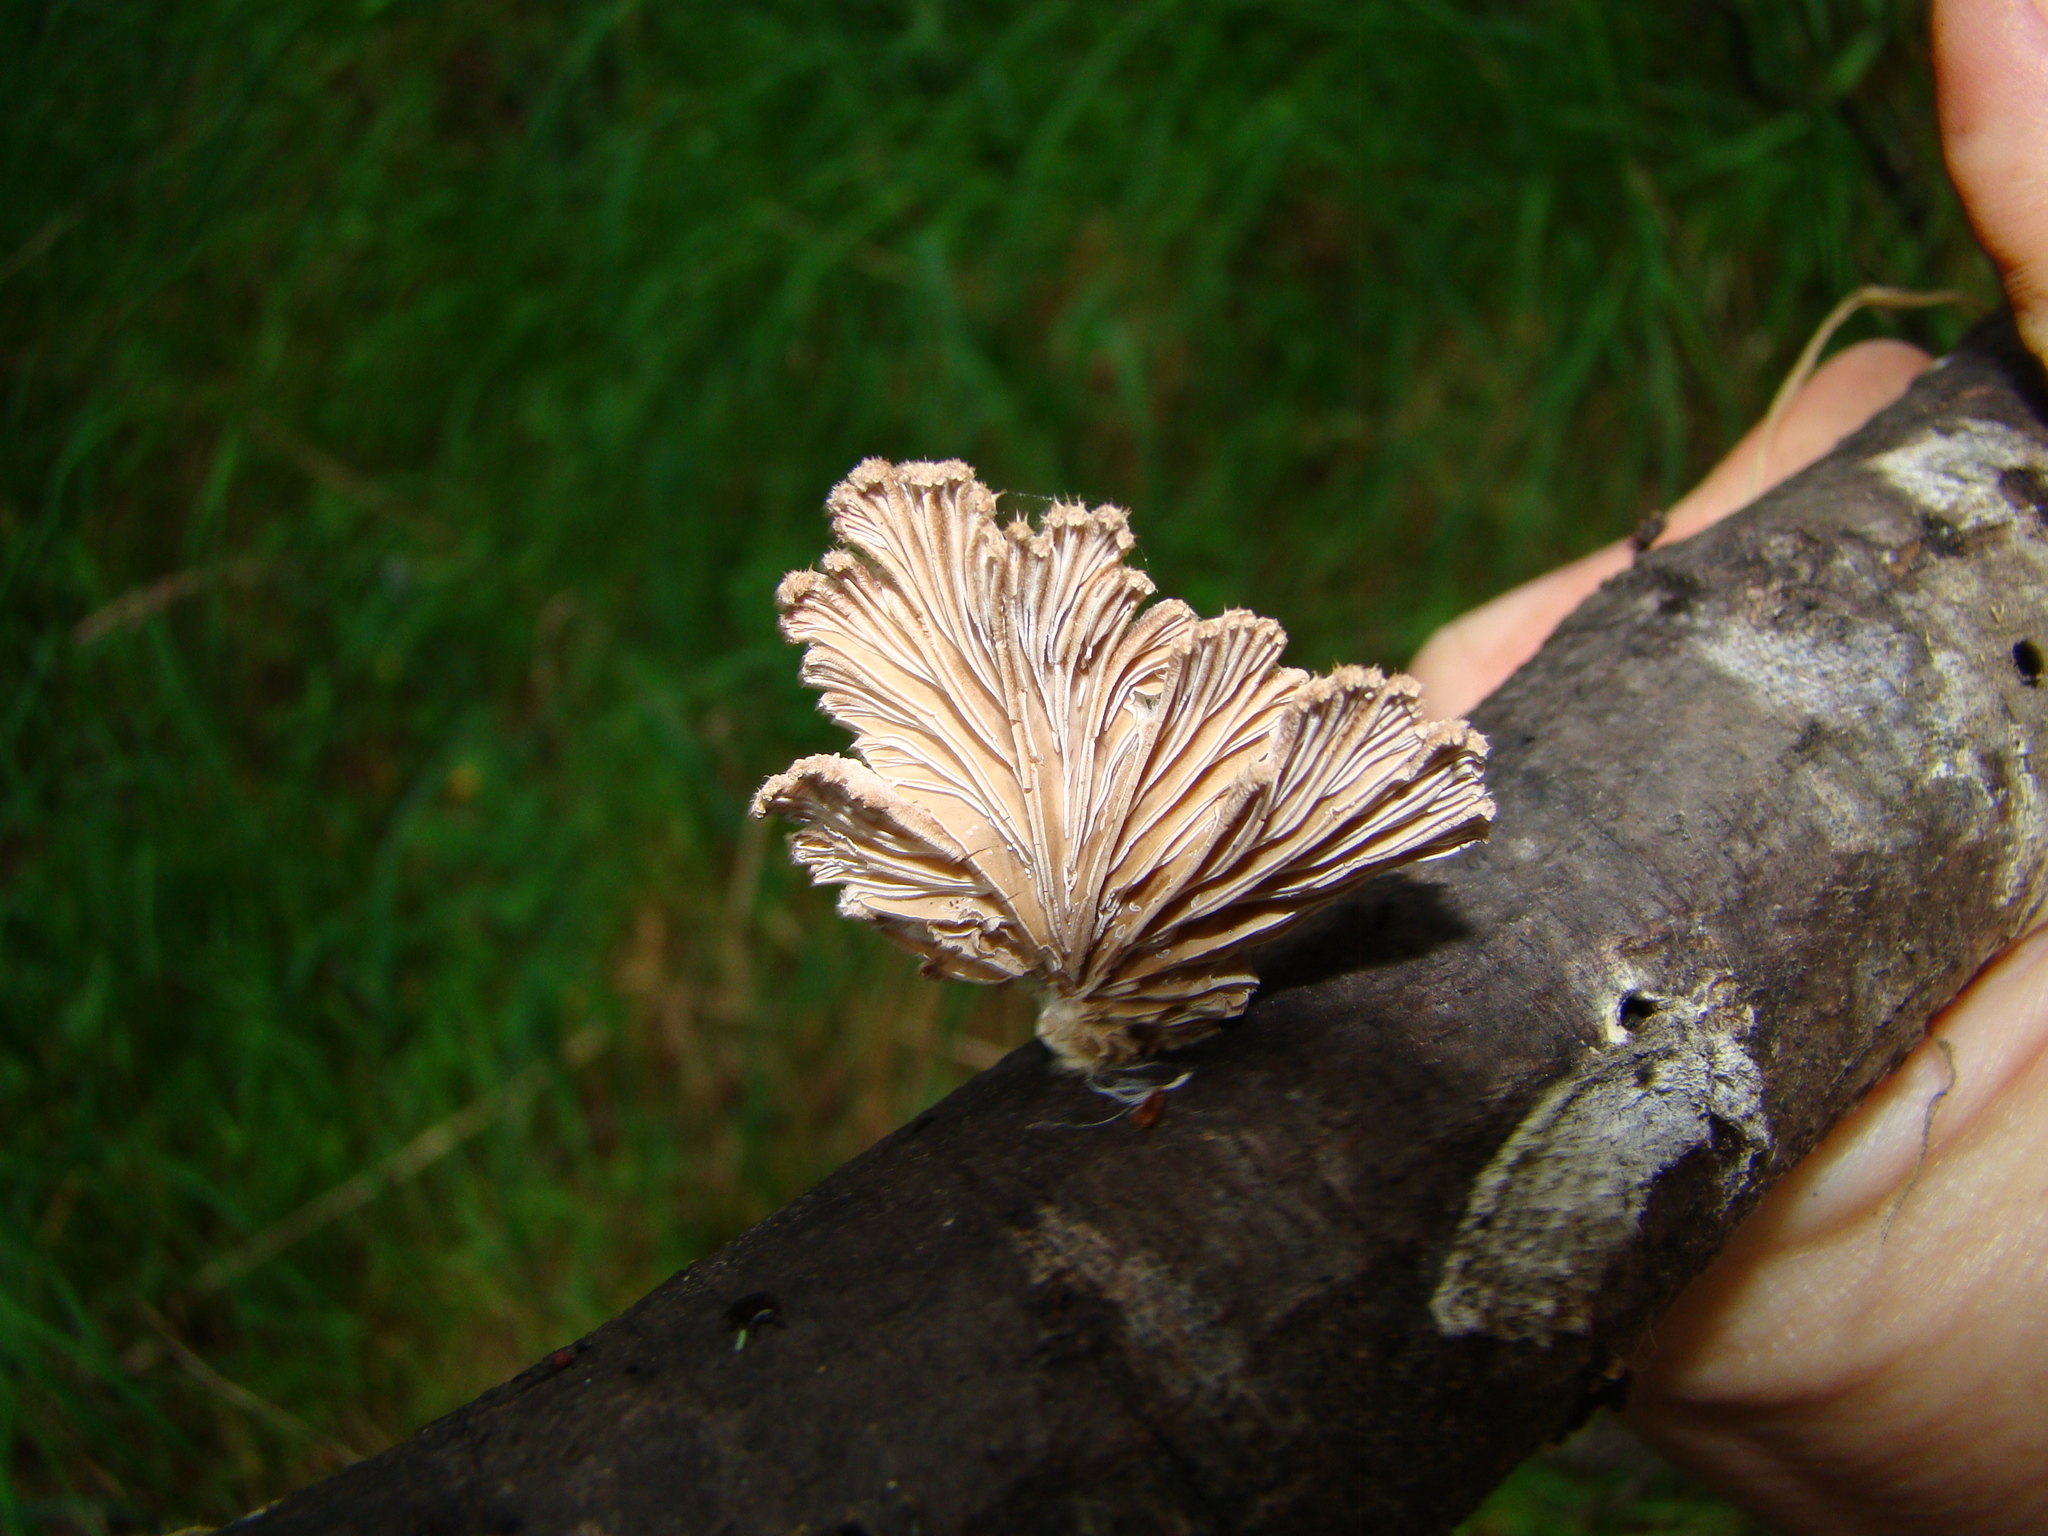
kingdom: Fungi
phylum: Basidiomycota
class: Agaricomycetes
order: Agaricales
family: Schizophyllaceae
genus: Schizophyllum
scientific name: Schizophyllum commune
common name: Common porecrust
